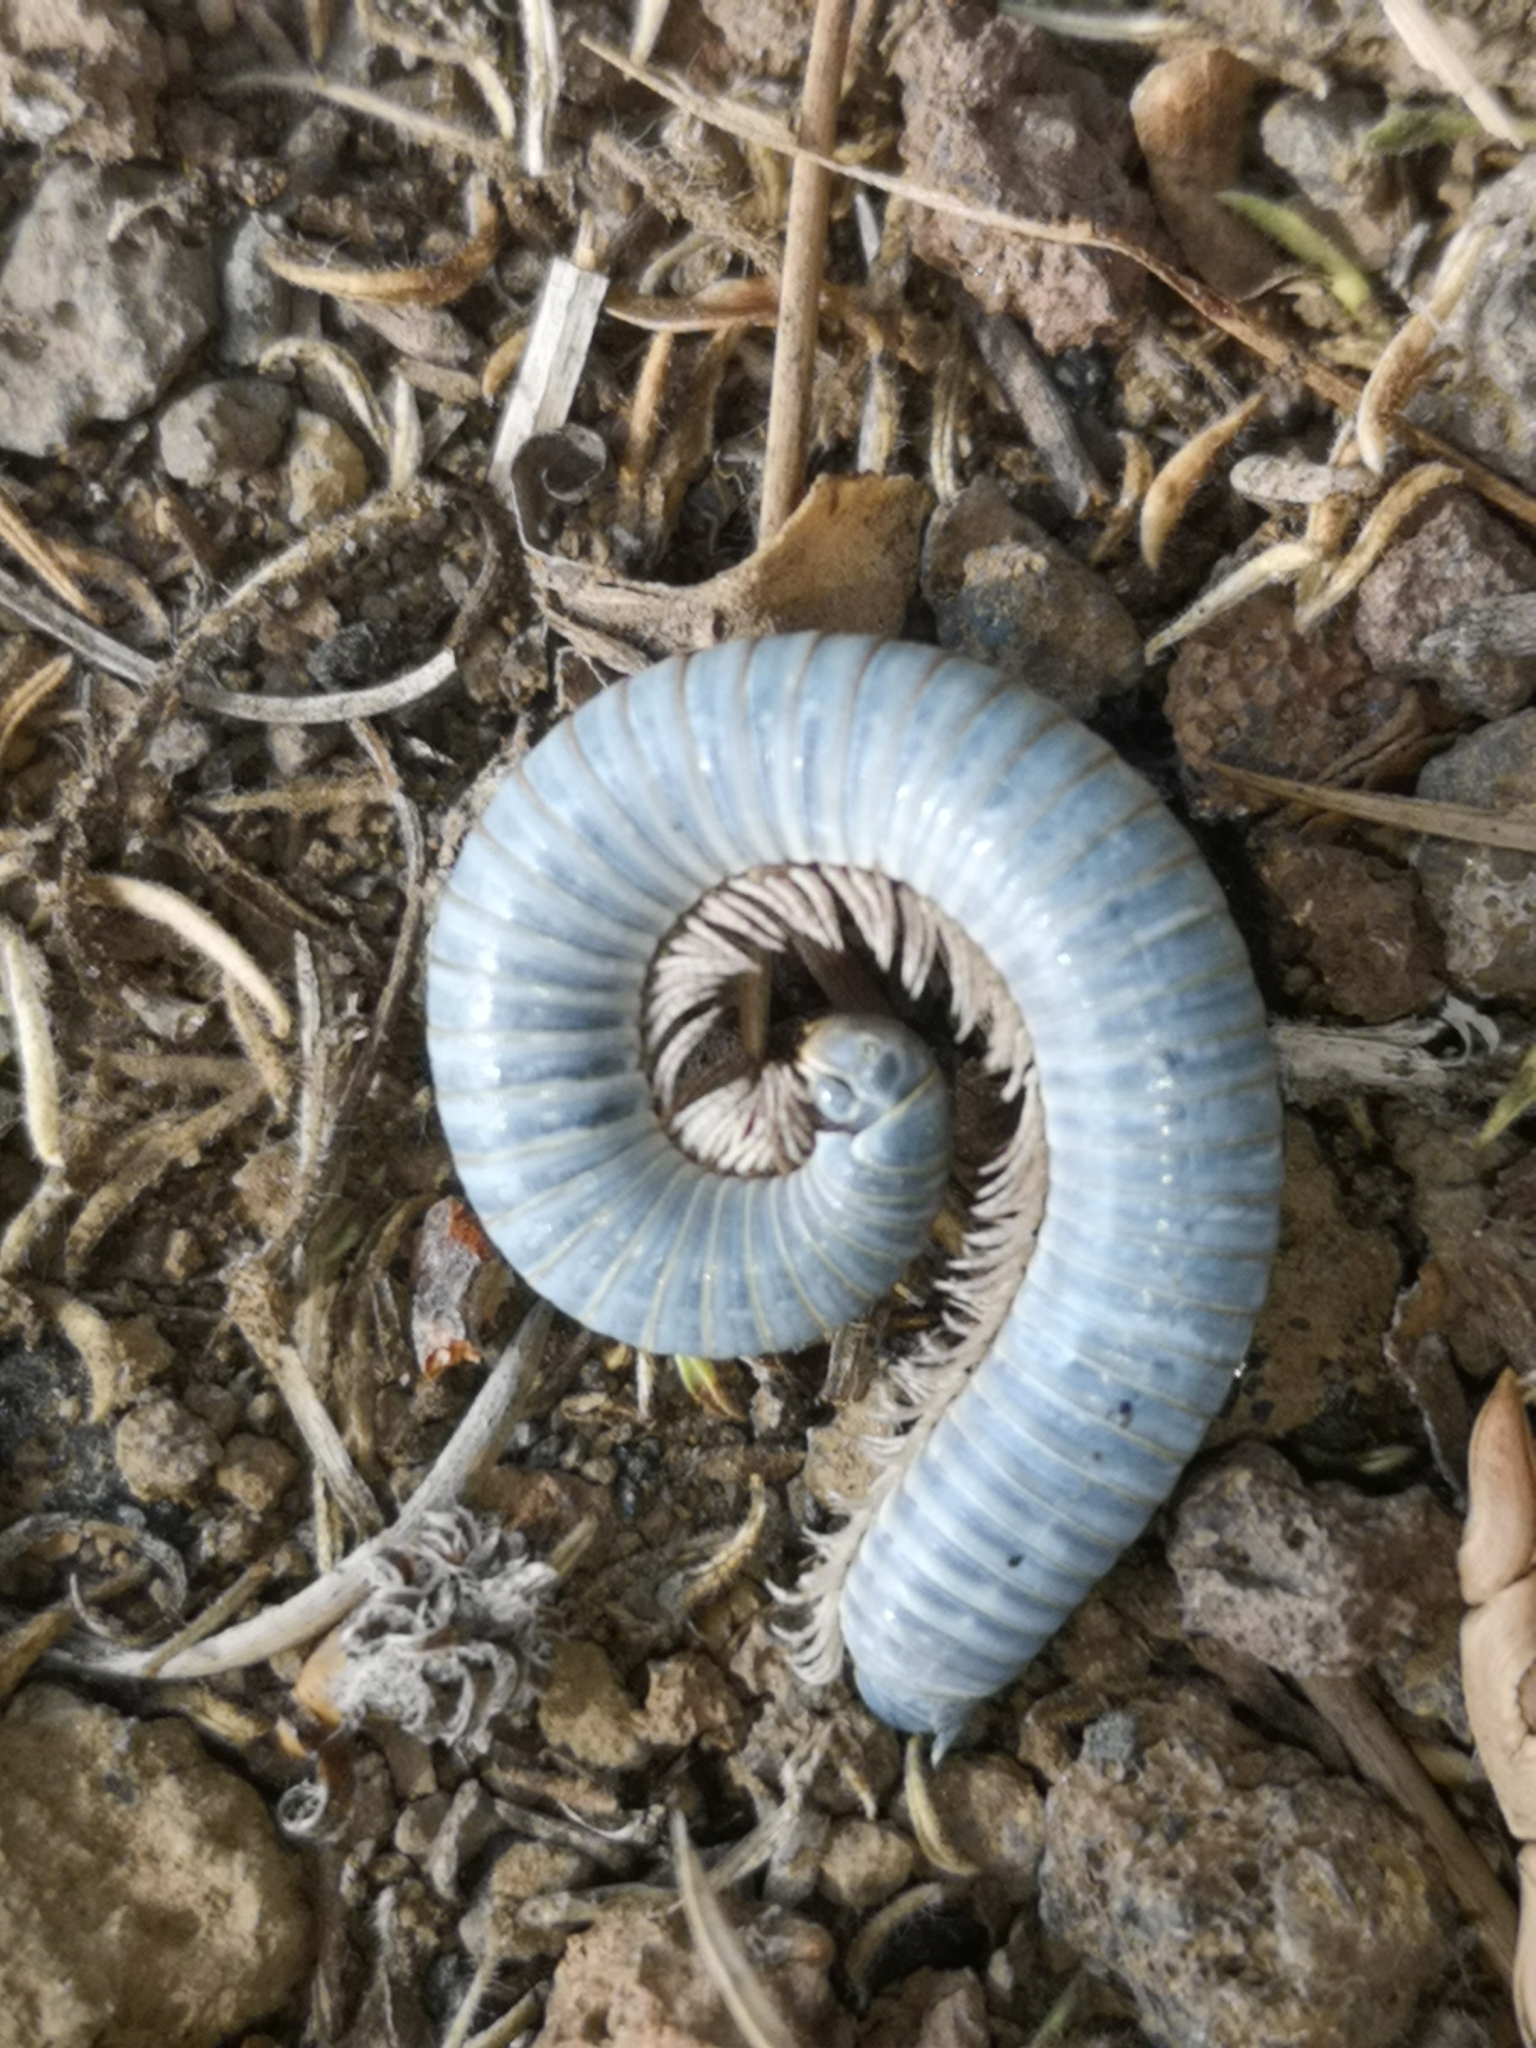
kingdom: Animalia
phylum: Arthropoda
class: Diplopoda
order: Julida
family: Julidae
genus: Ommatoiulus
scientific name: Ommatoiulus moreleti
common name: Portuguese millipede
